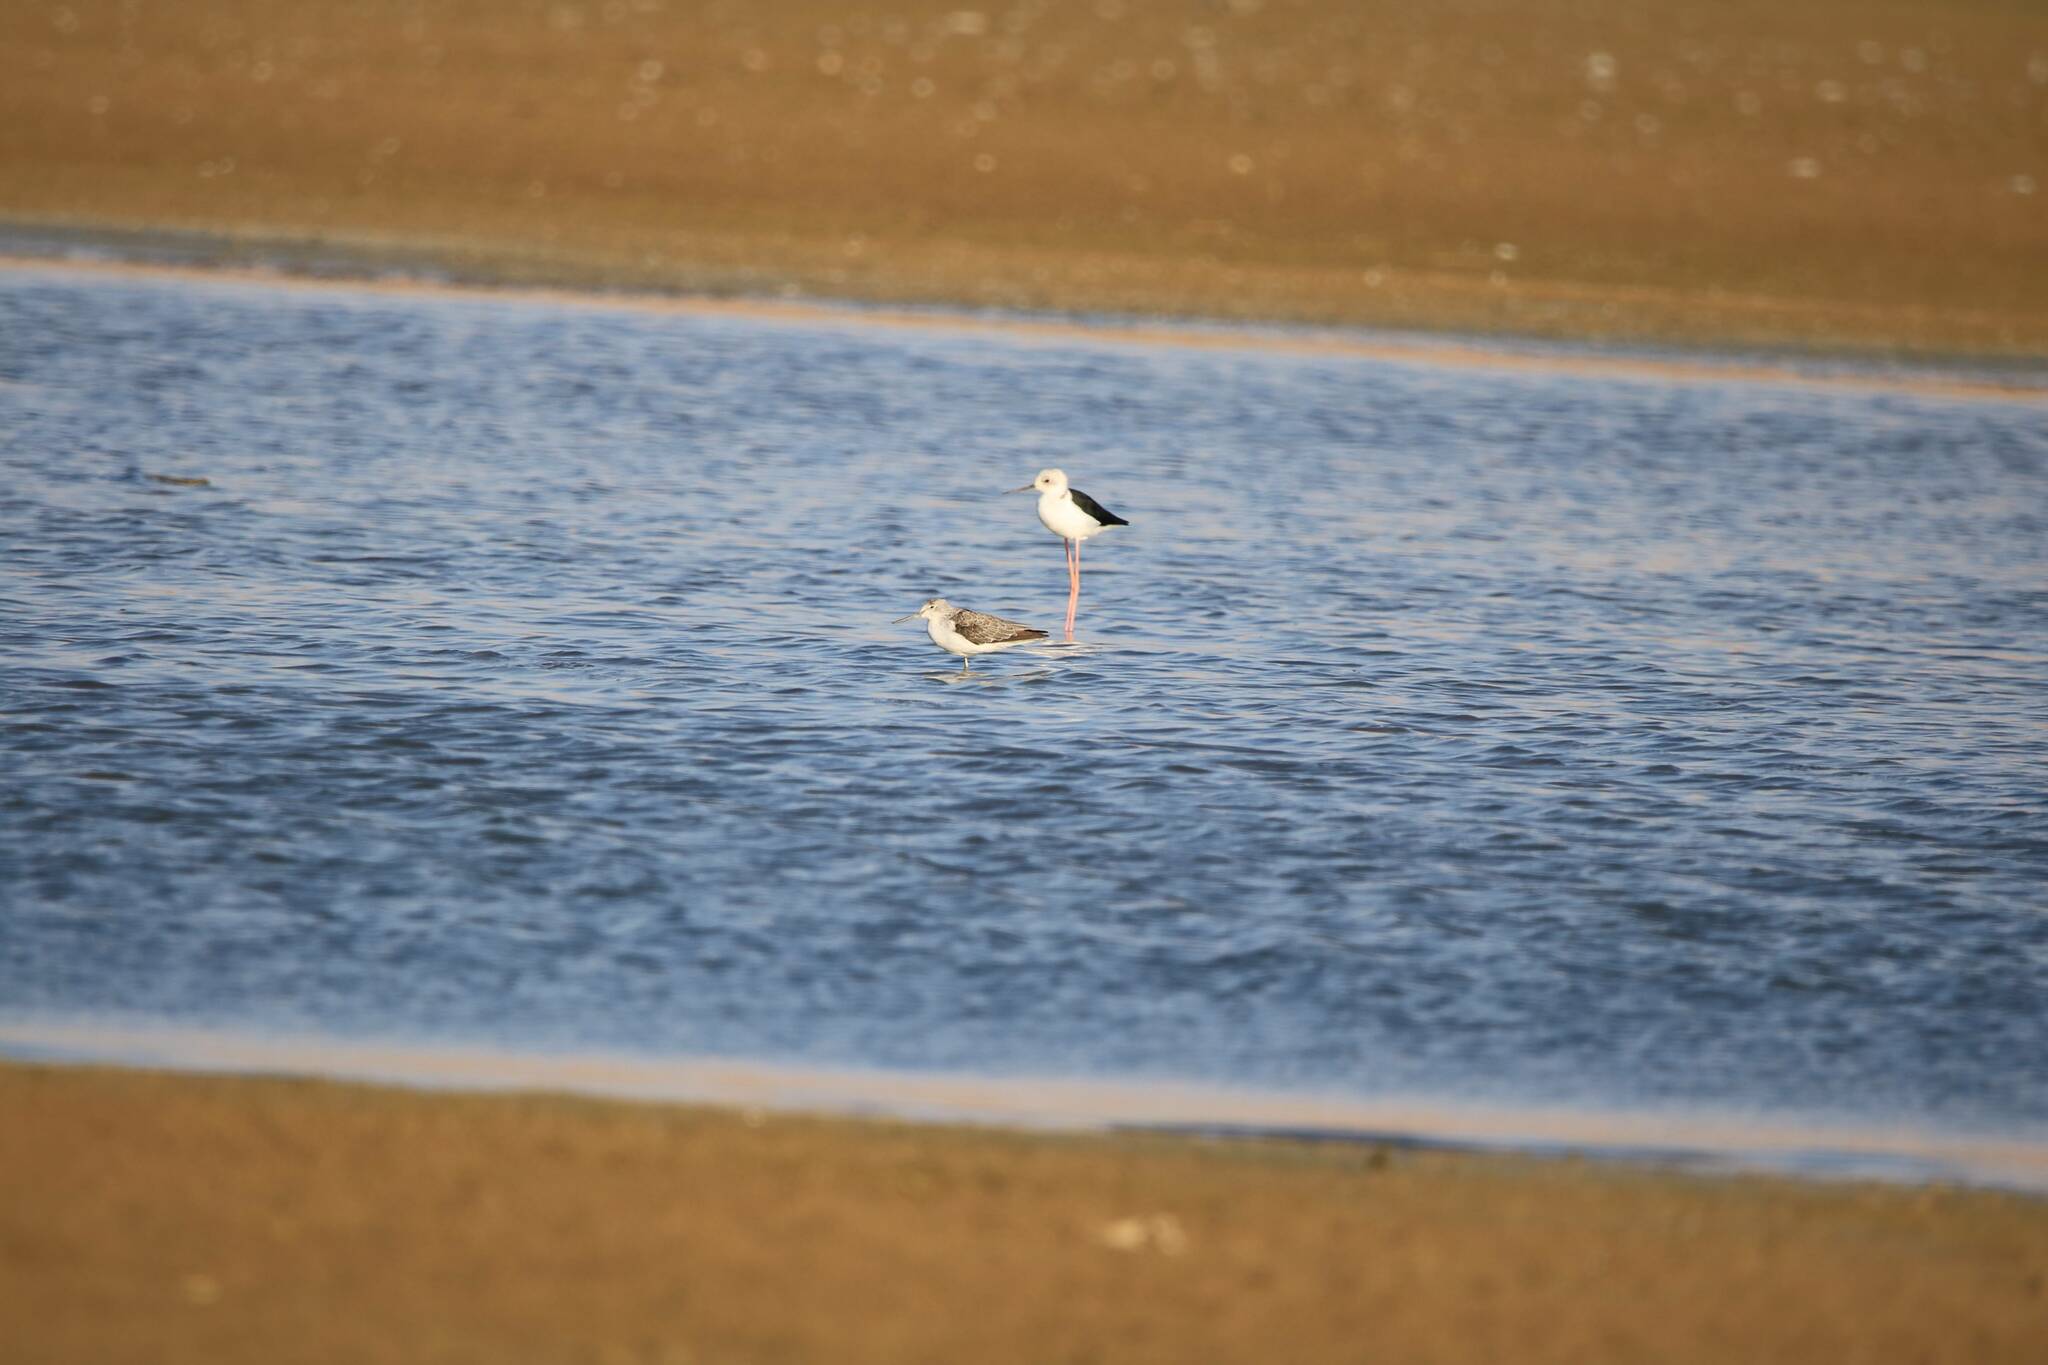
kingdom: Animalia
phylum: Chordata
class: Aves
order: Charadriiformes
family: Recurvirostridae
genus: Himantopus
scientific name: Himantopus himantopus
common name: Black-winged stilt
